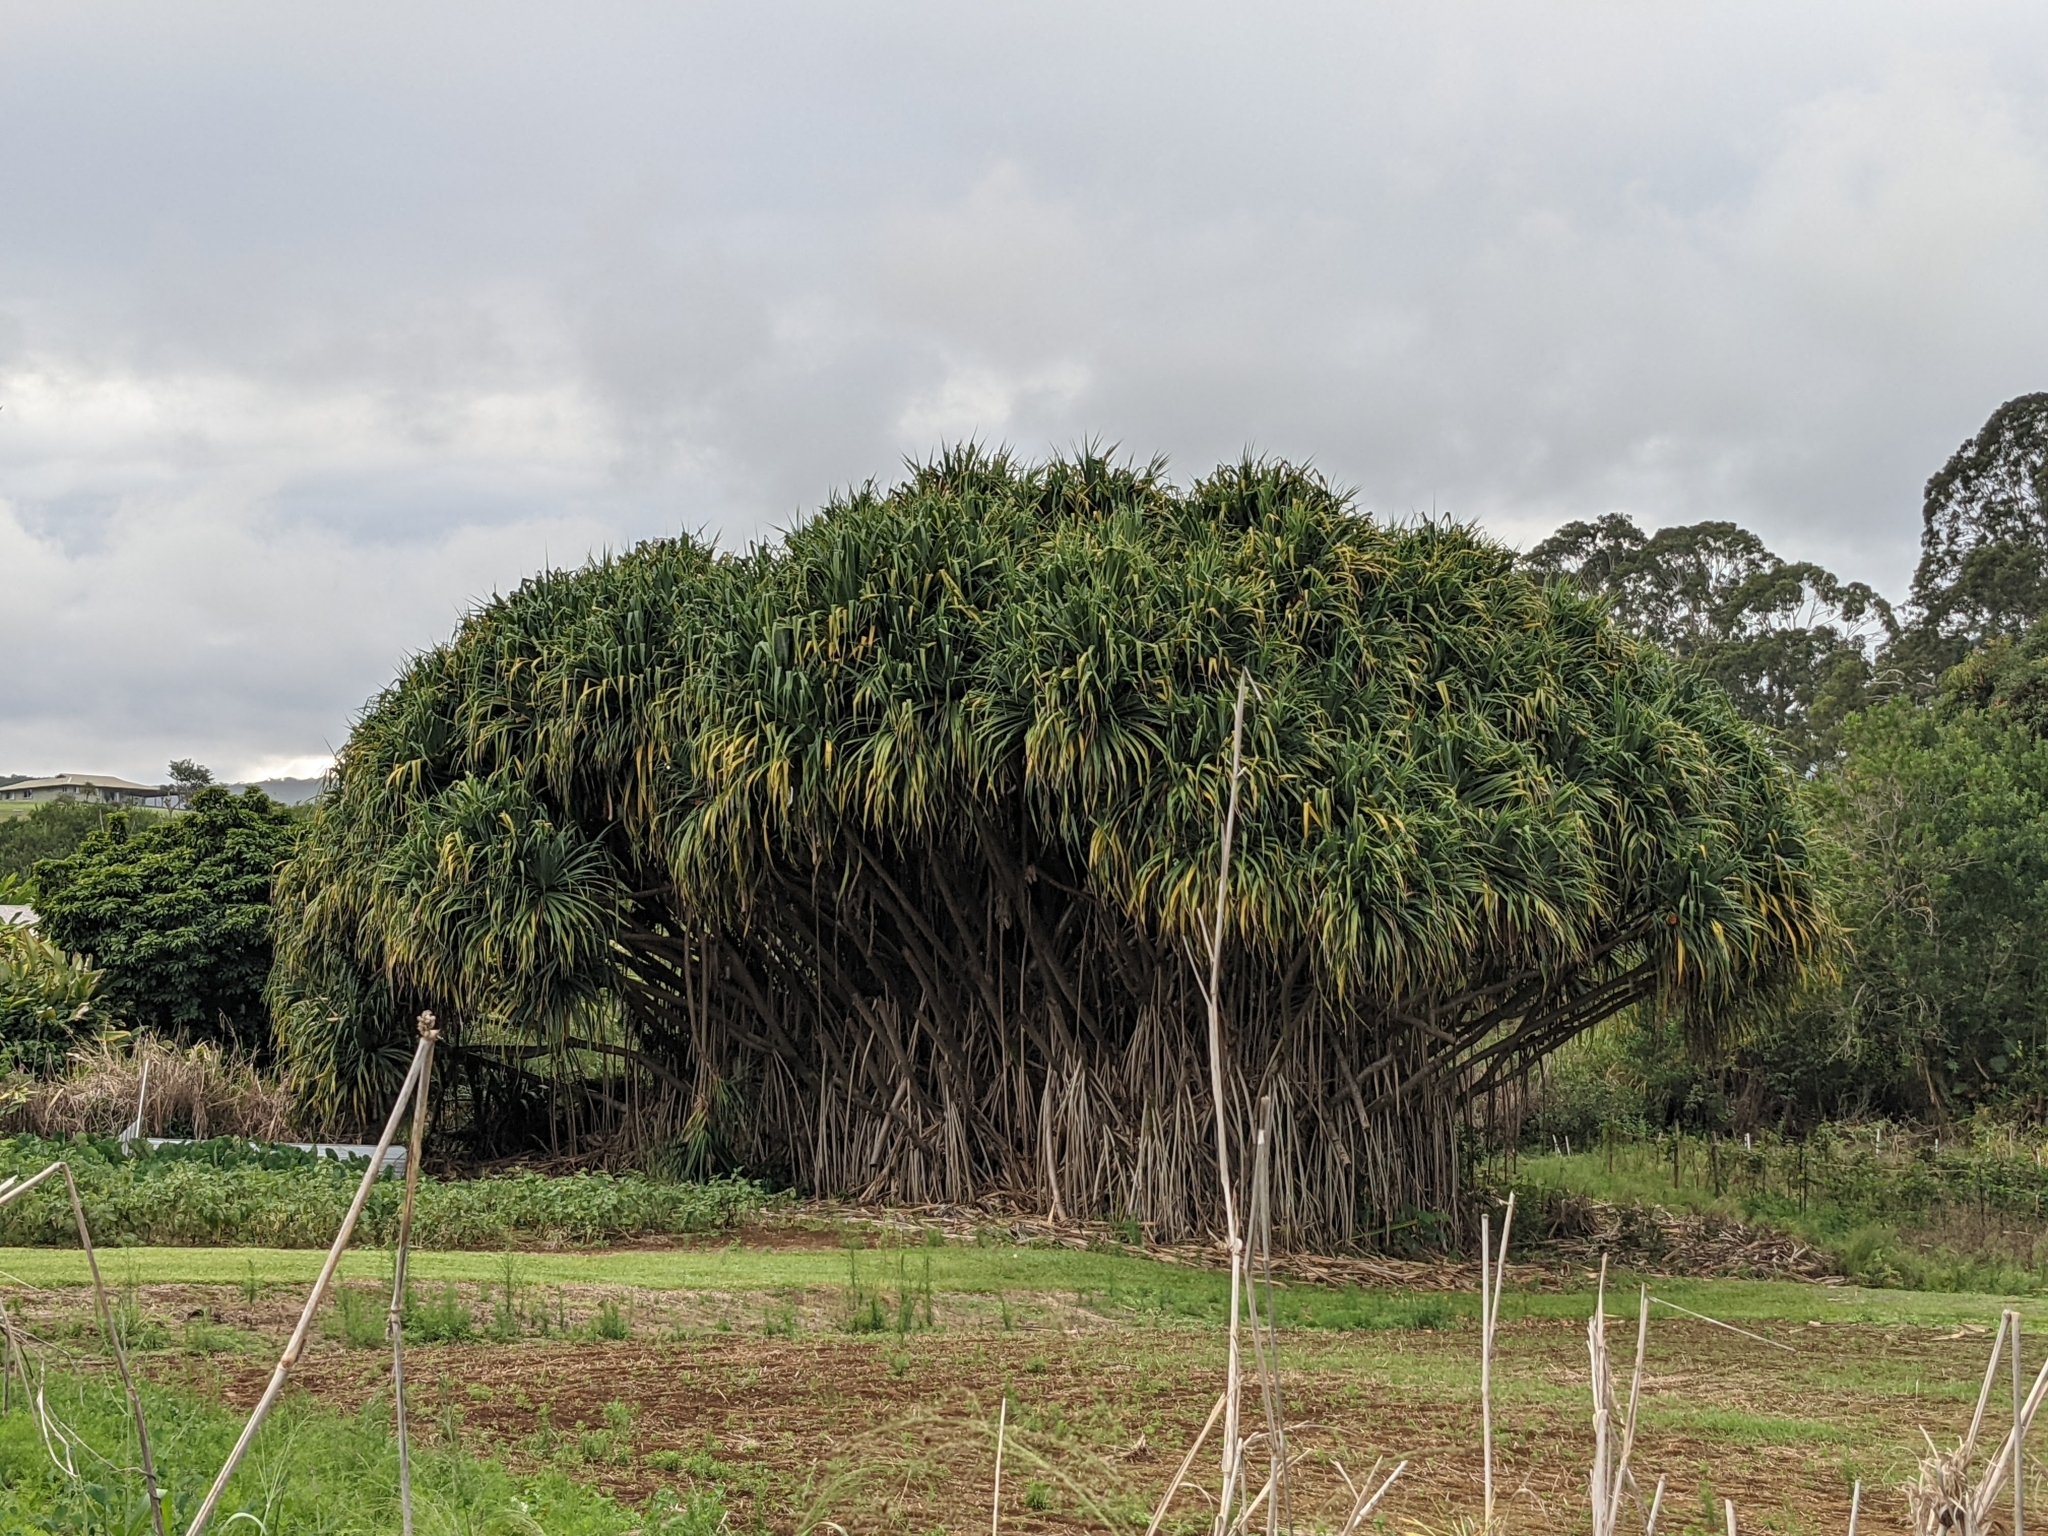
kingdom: Plantae
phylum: Tracheophyta
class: Liliopsida
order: Pandanales
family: Pandanaceae
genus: Pandanus
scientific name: Pandanus tectorius
